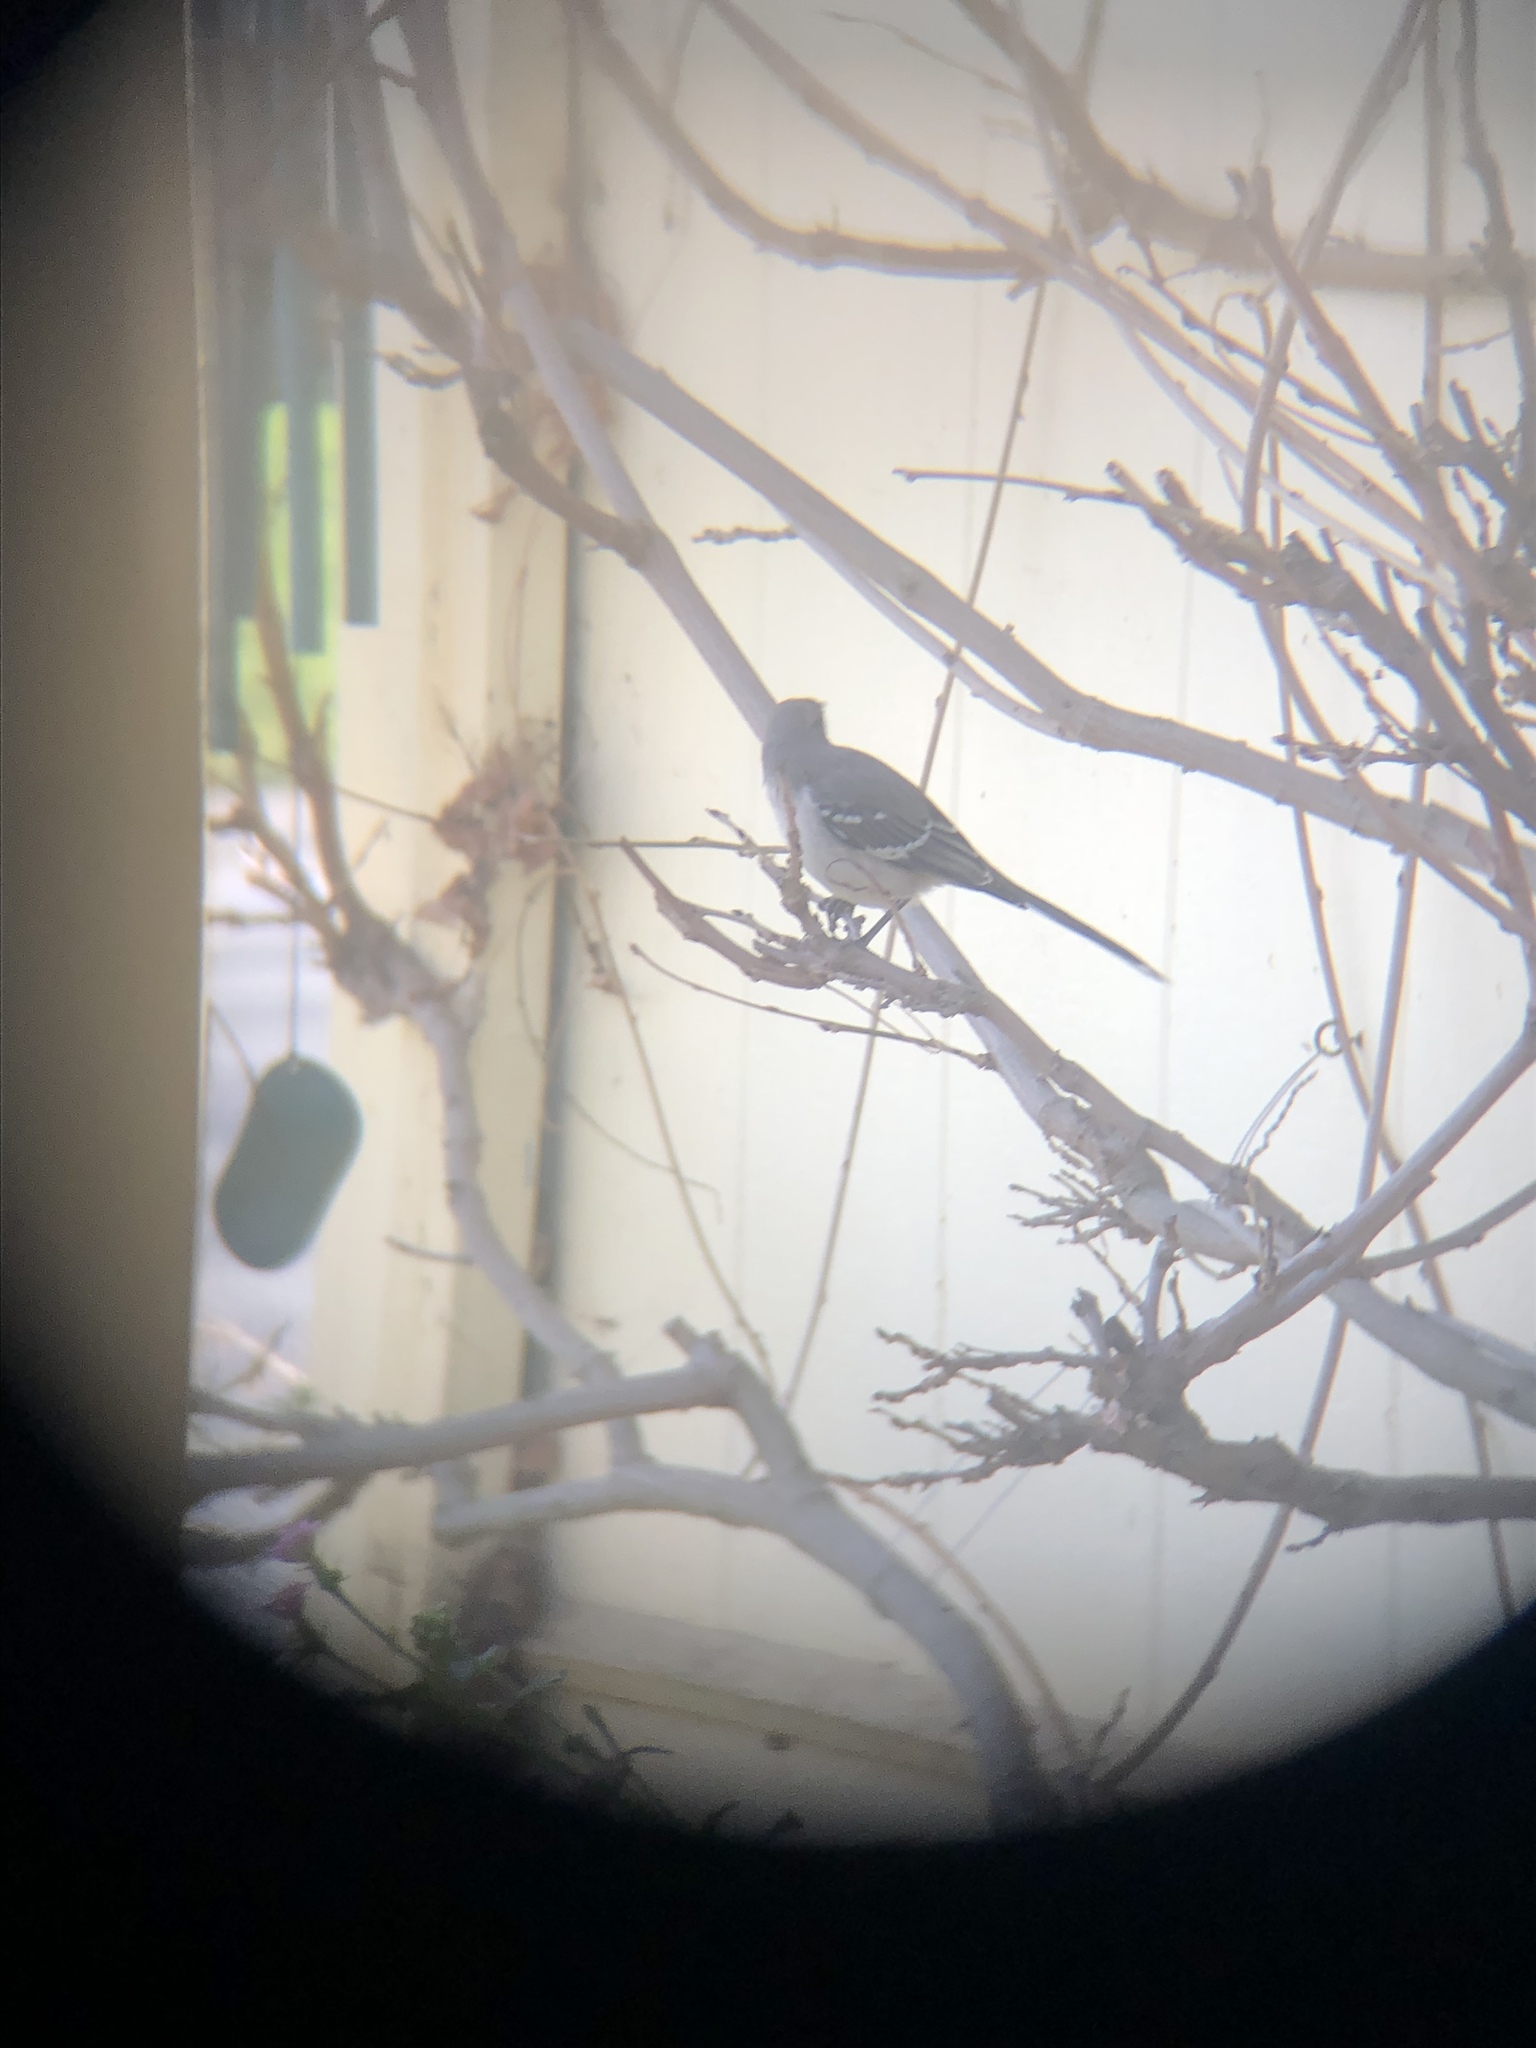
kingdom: Animalia
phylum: Chordata
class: Aves
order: Passeriformes
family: Mimidae
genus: Mimus
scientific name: Mimus polyglottos
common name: Northern mockingbird
